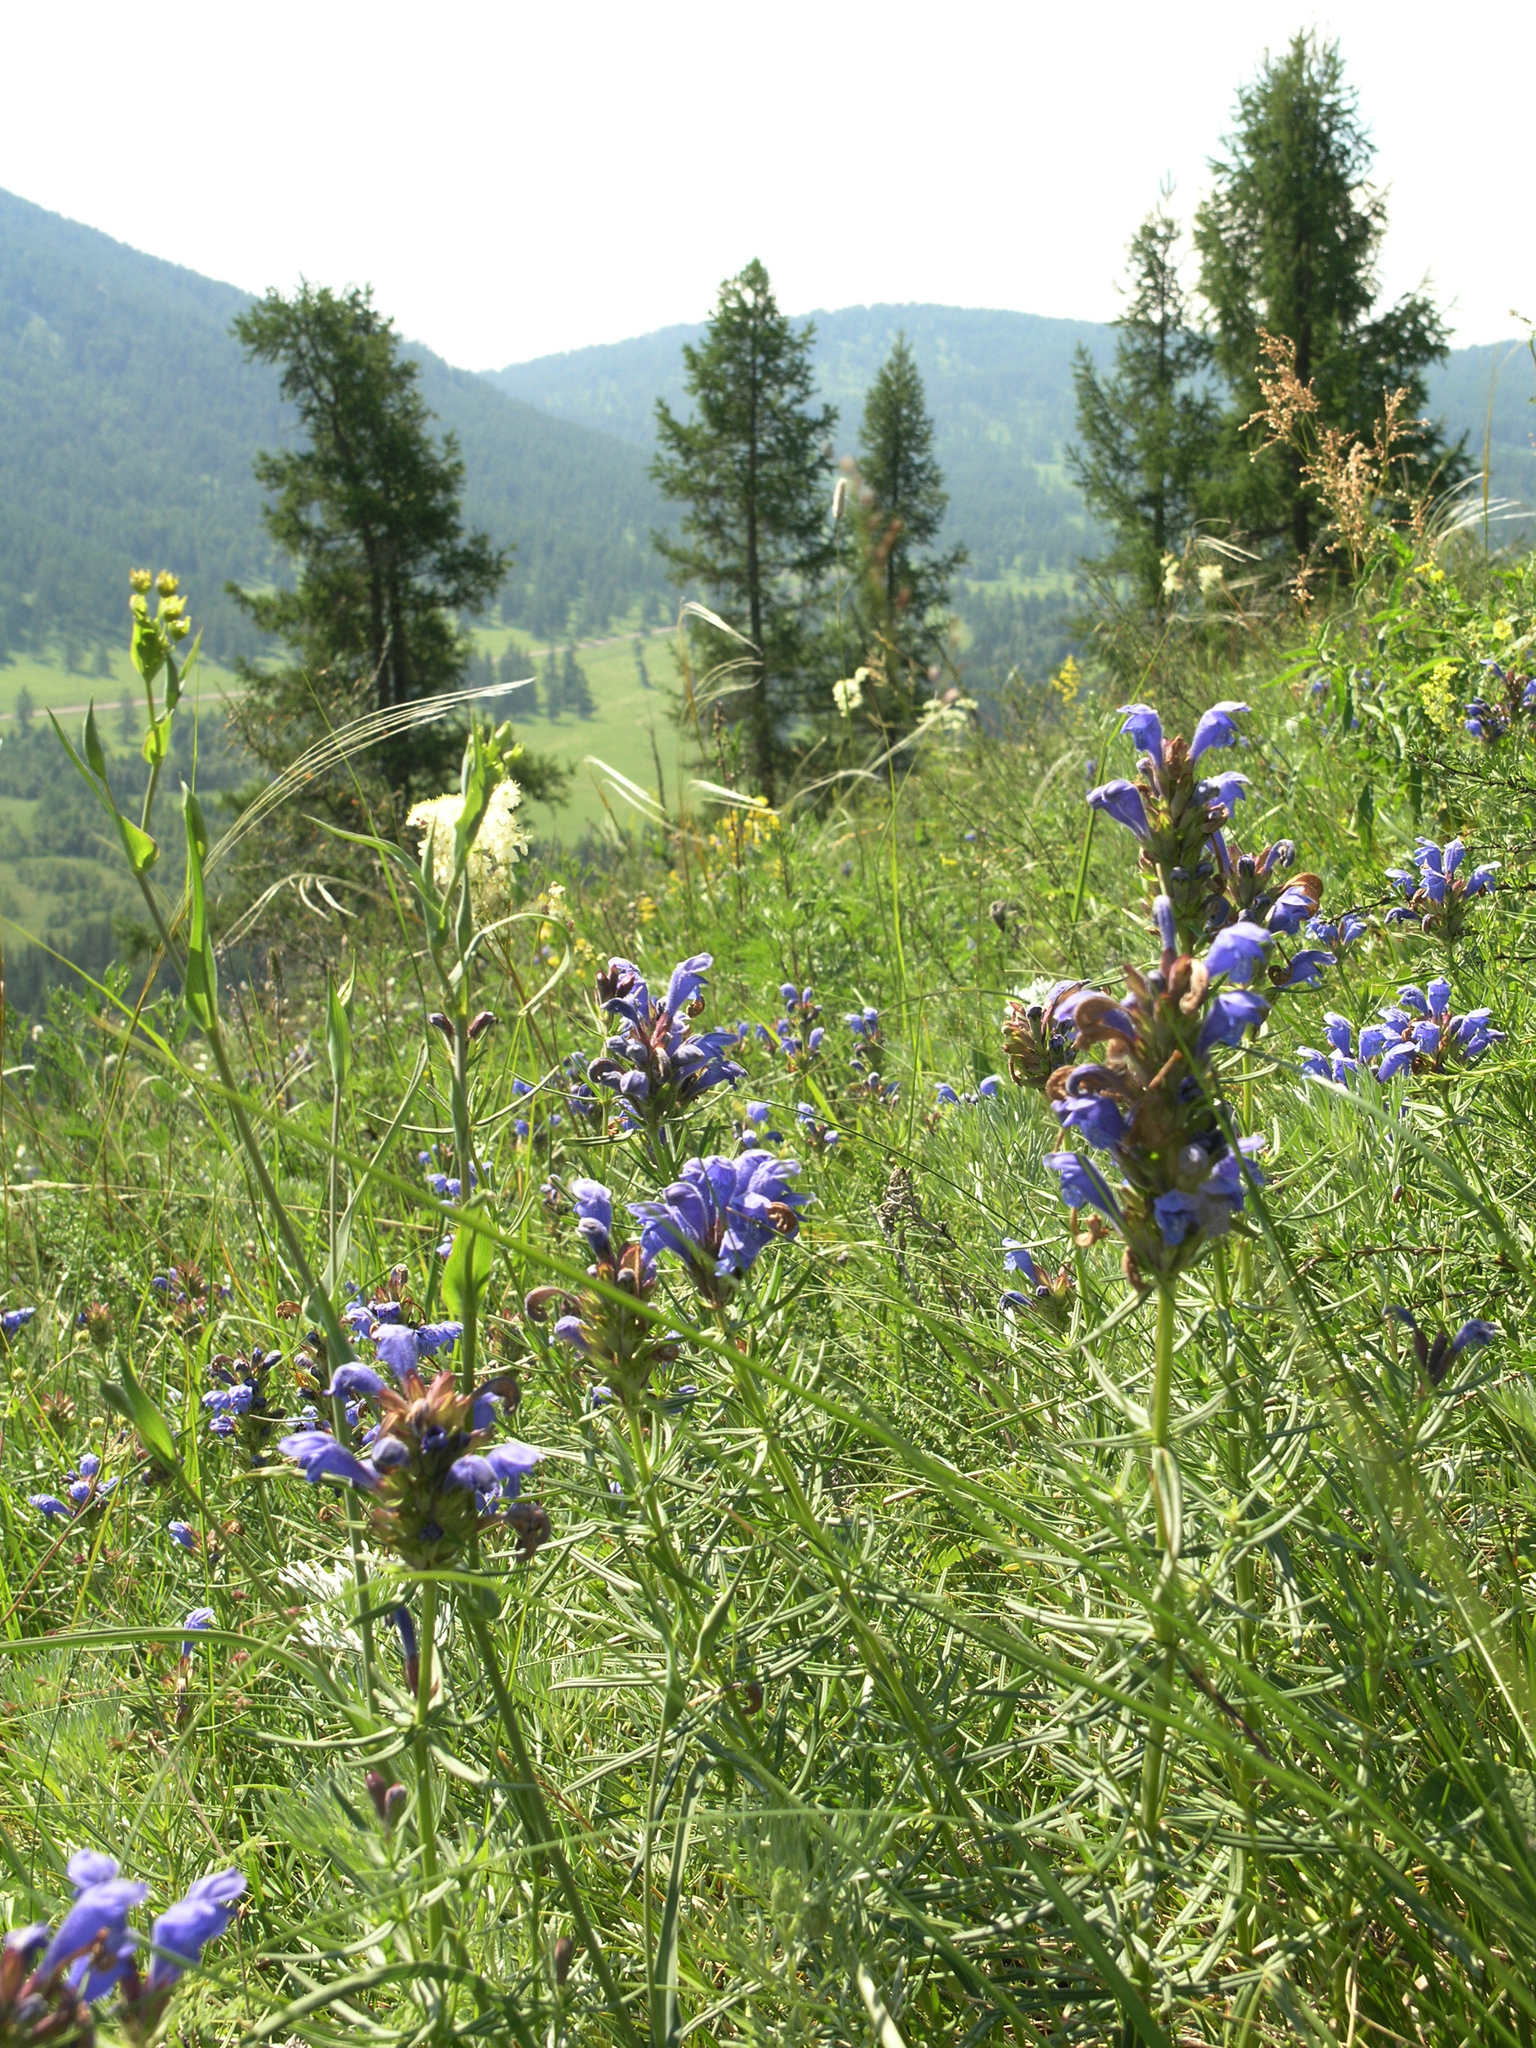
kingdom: Plantae
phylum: Tracheophyta
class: Magnoliopsida
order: Lamiales
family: Lamiaceae
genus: Dracocephalum
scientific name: Dracocephalum ruyschiana
